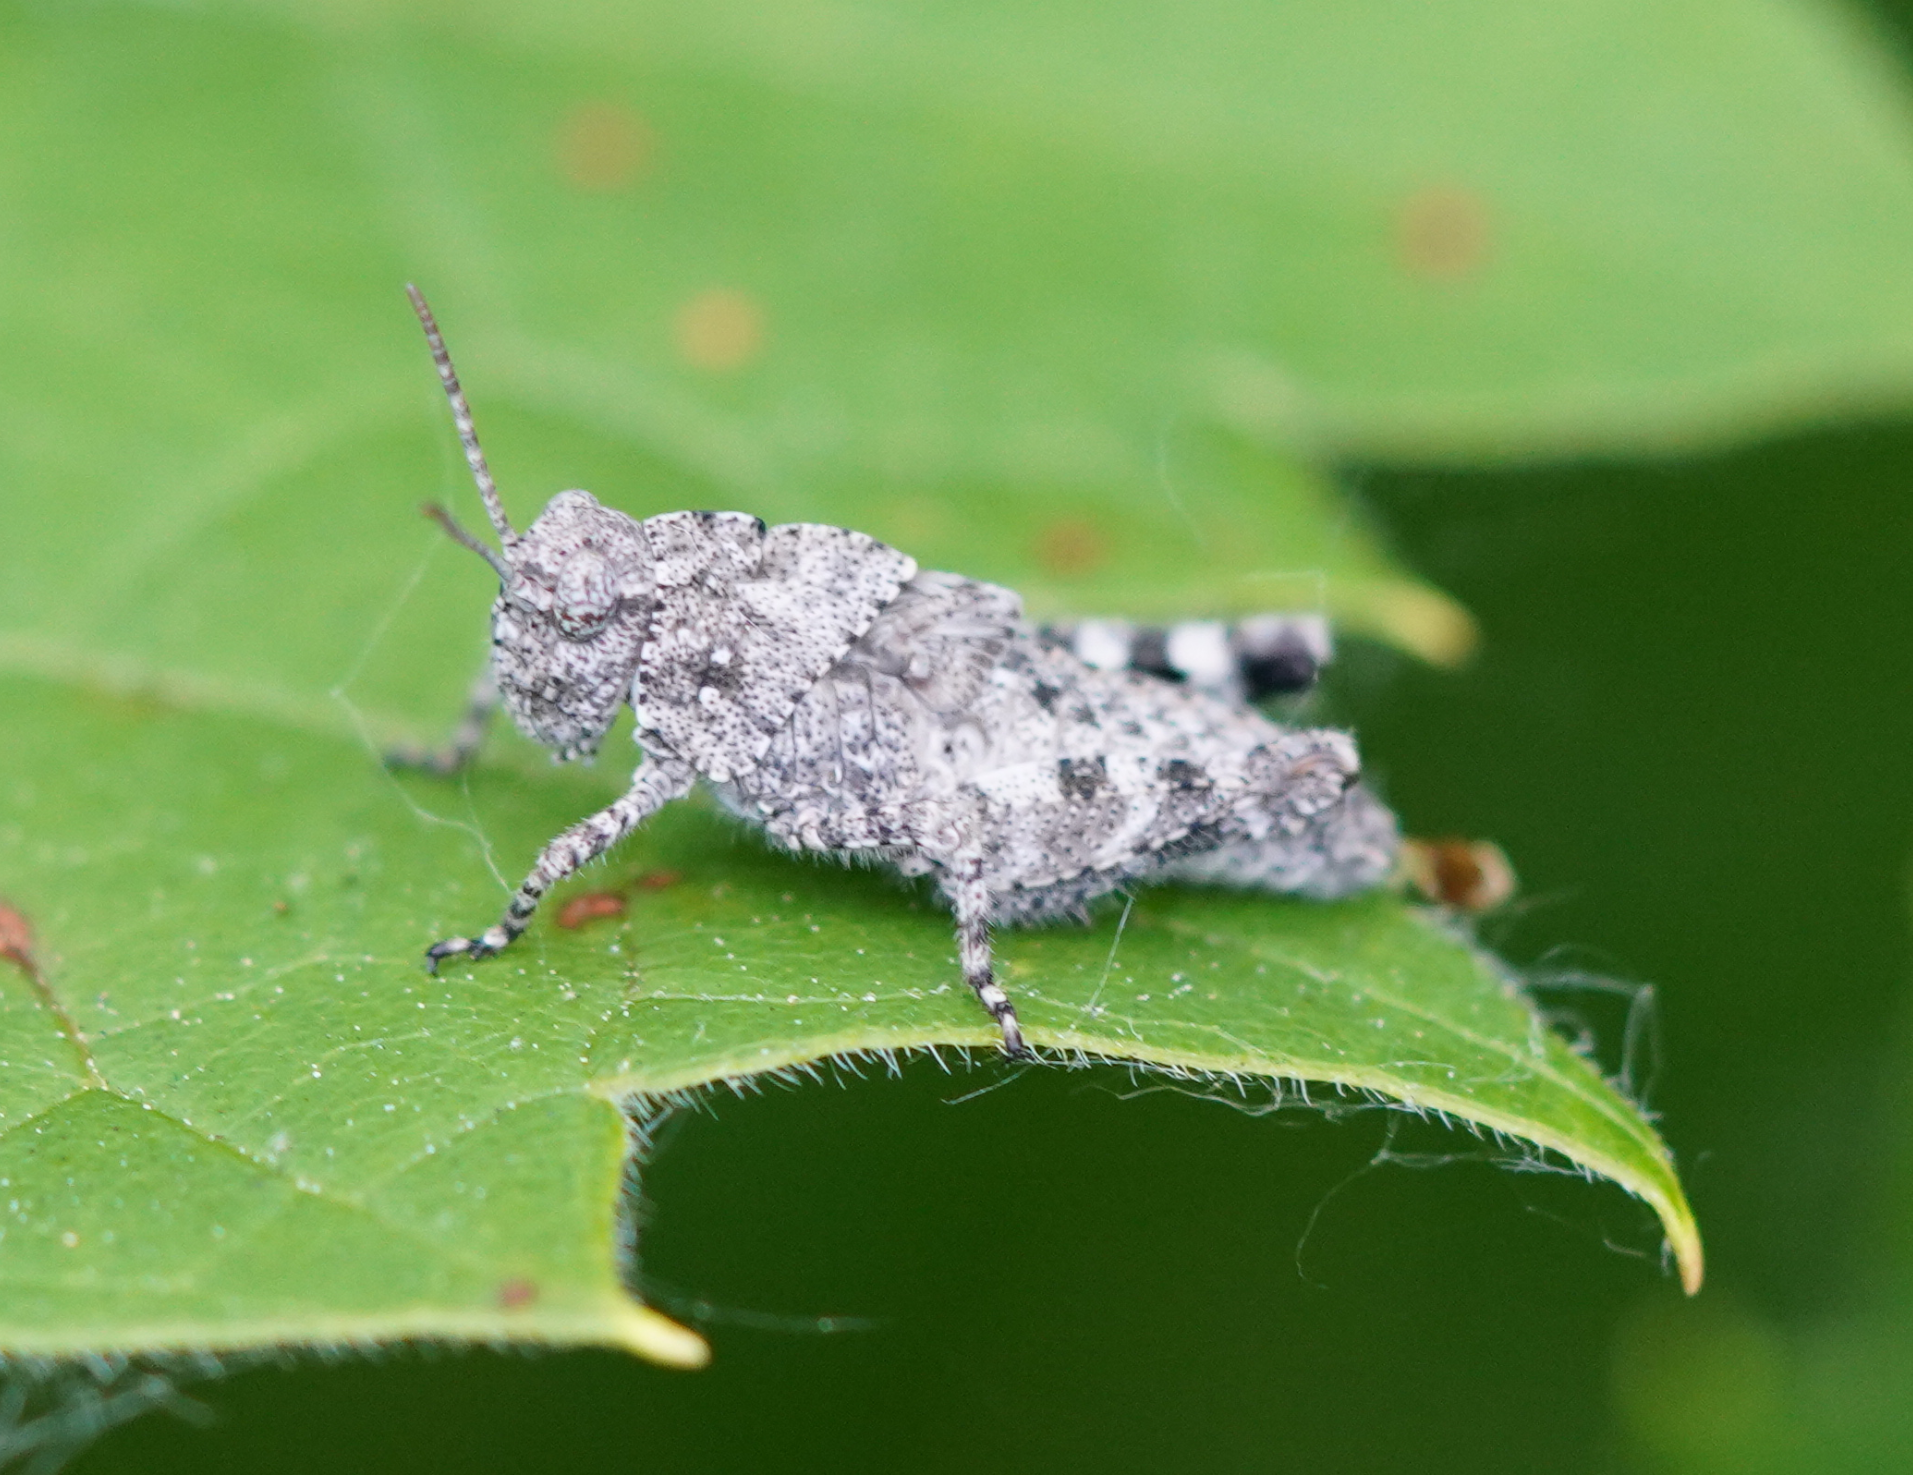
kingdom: Animalia
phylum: Arthropoda
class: Insecta
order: Orthoptera
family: Acrididae
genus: Dissosteira
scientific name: Dissosteira carolina
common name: Carolina grasshopper
